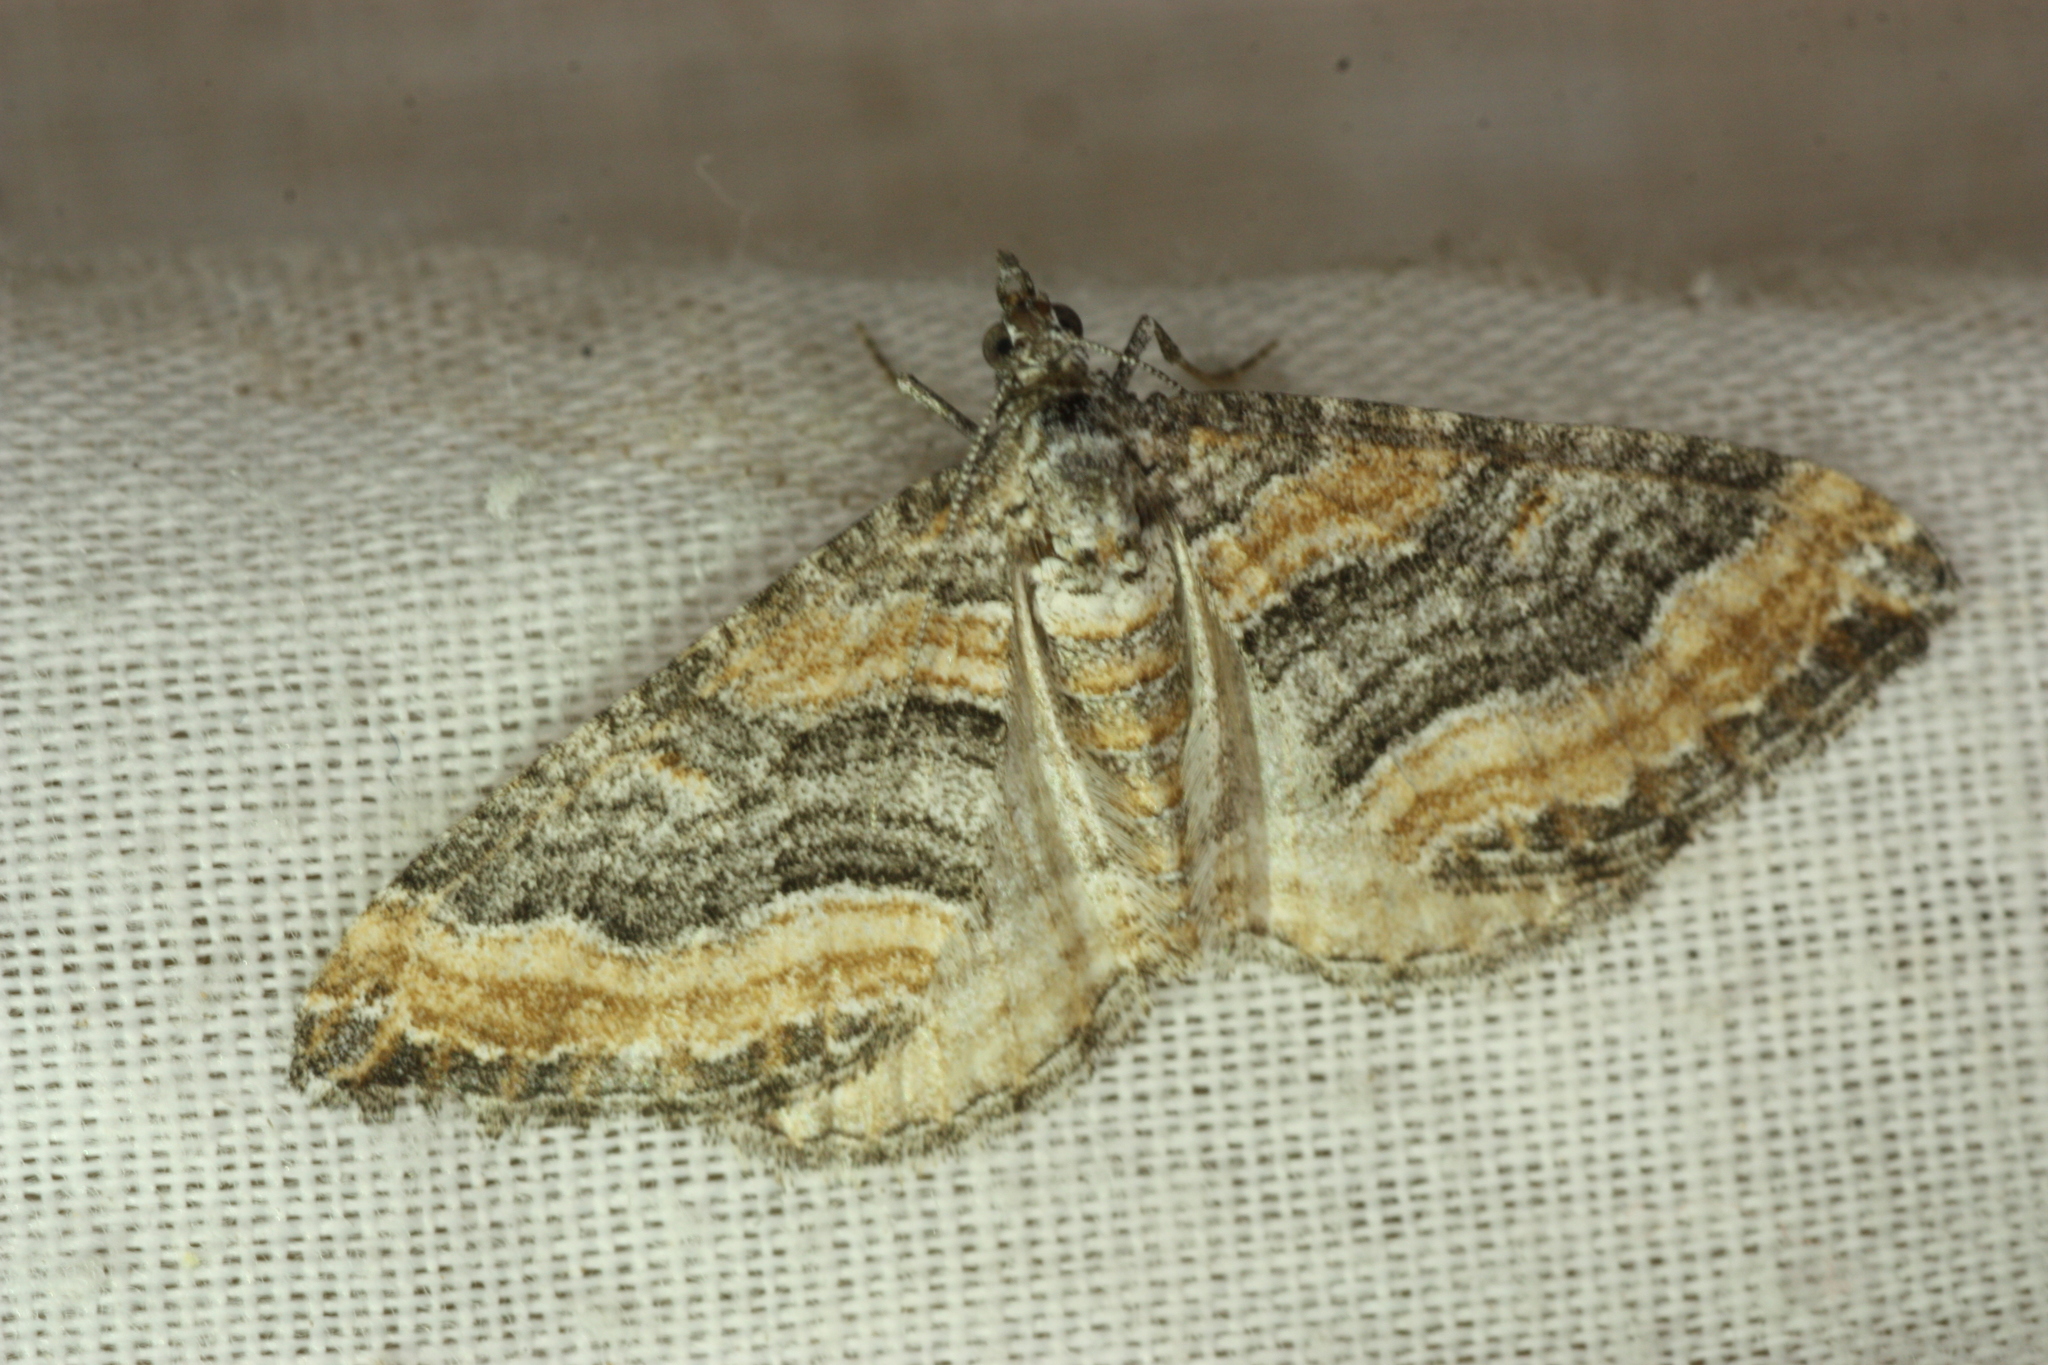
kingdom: Animalia
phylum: Arthropoda
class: Insecta
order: Lepidoptera
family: Geometridae
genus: Perizoma
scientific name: Perizoma custodiata
